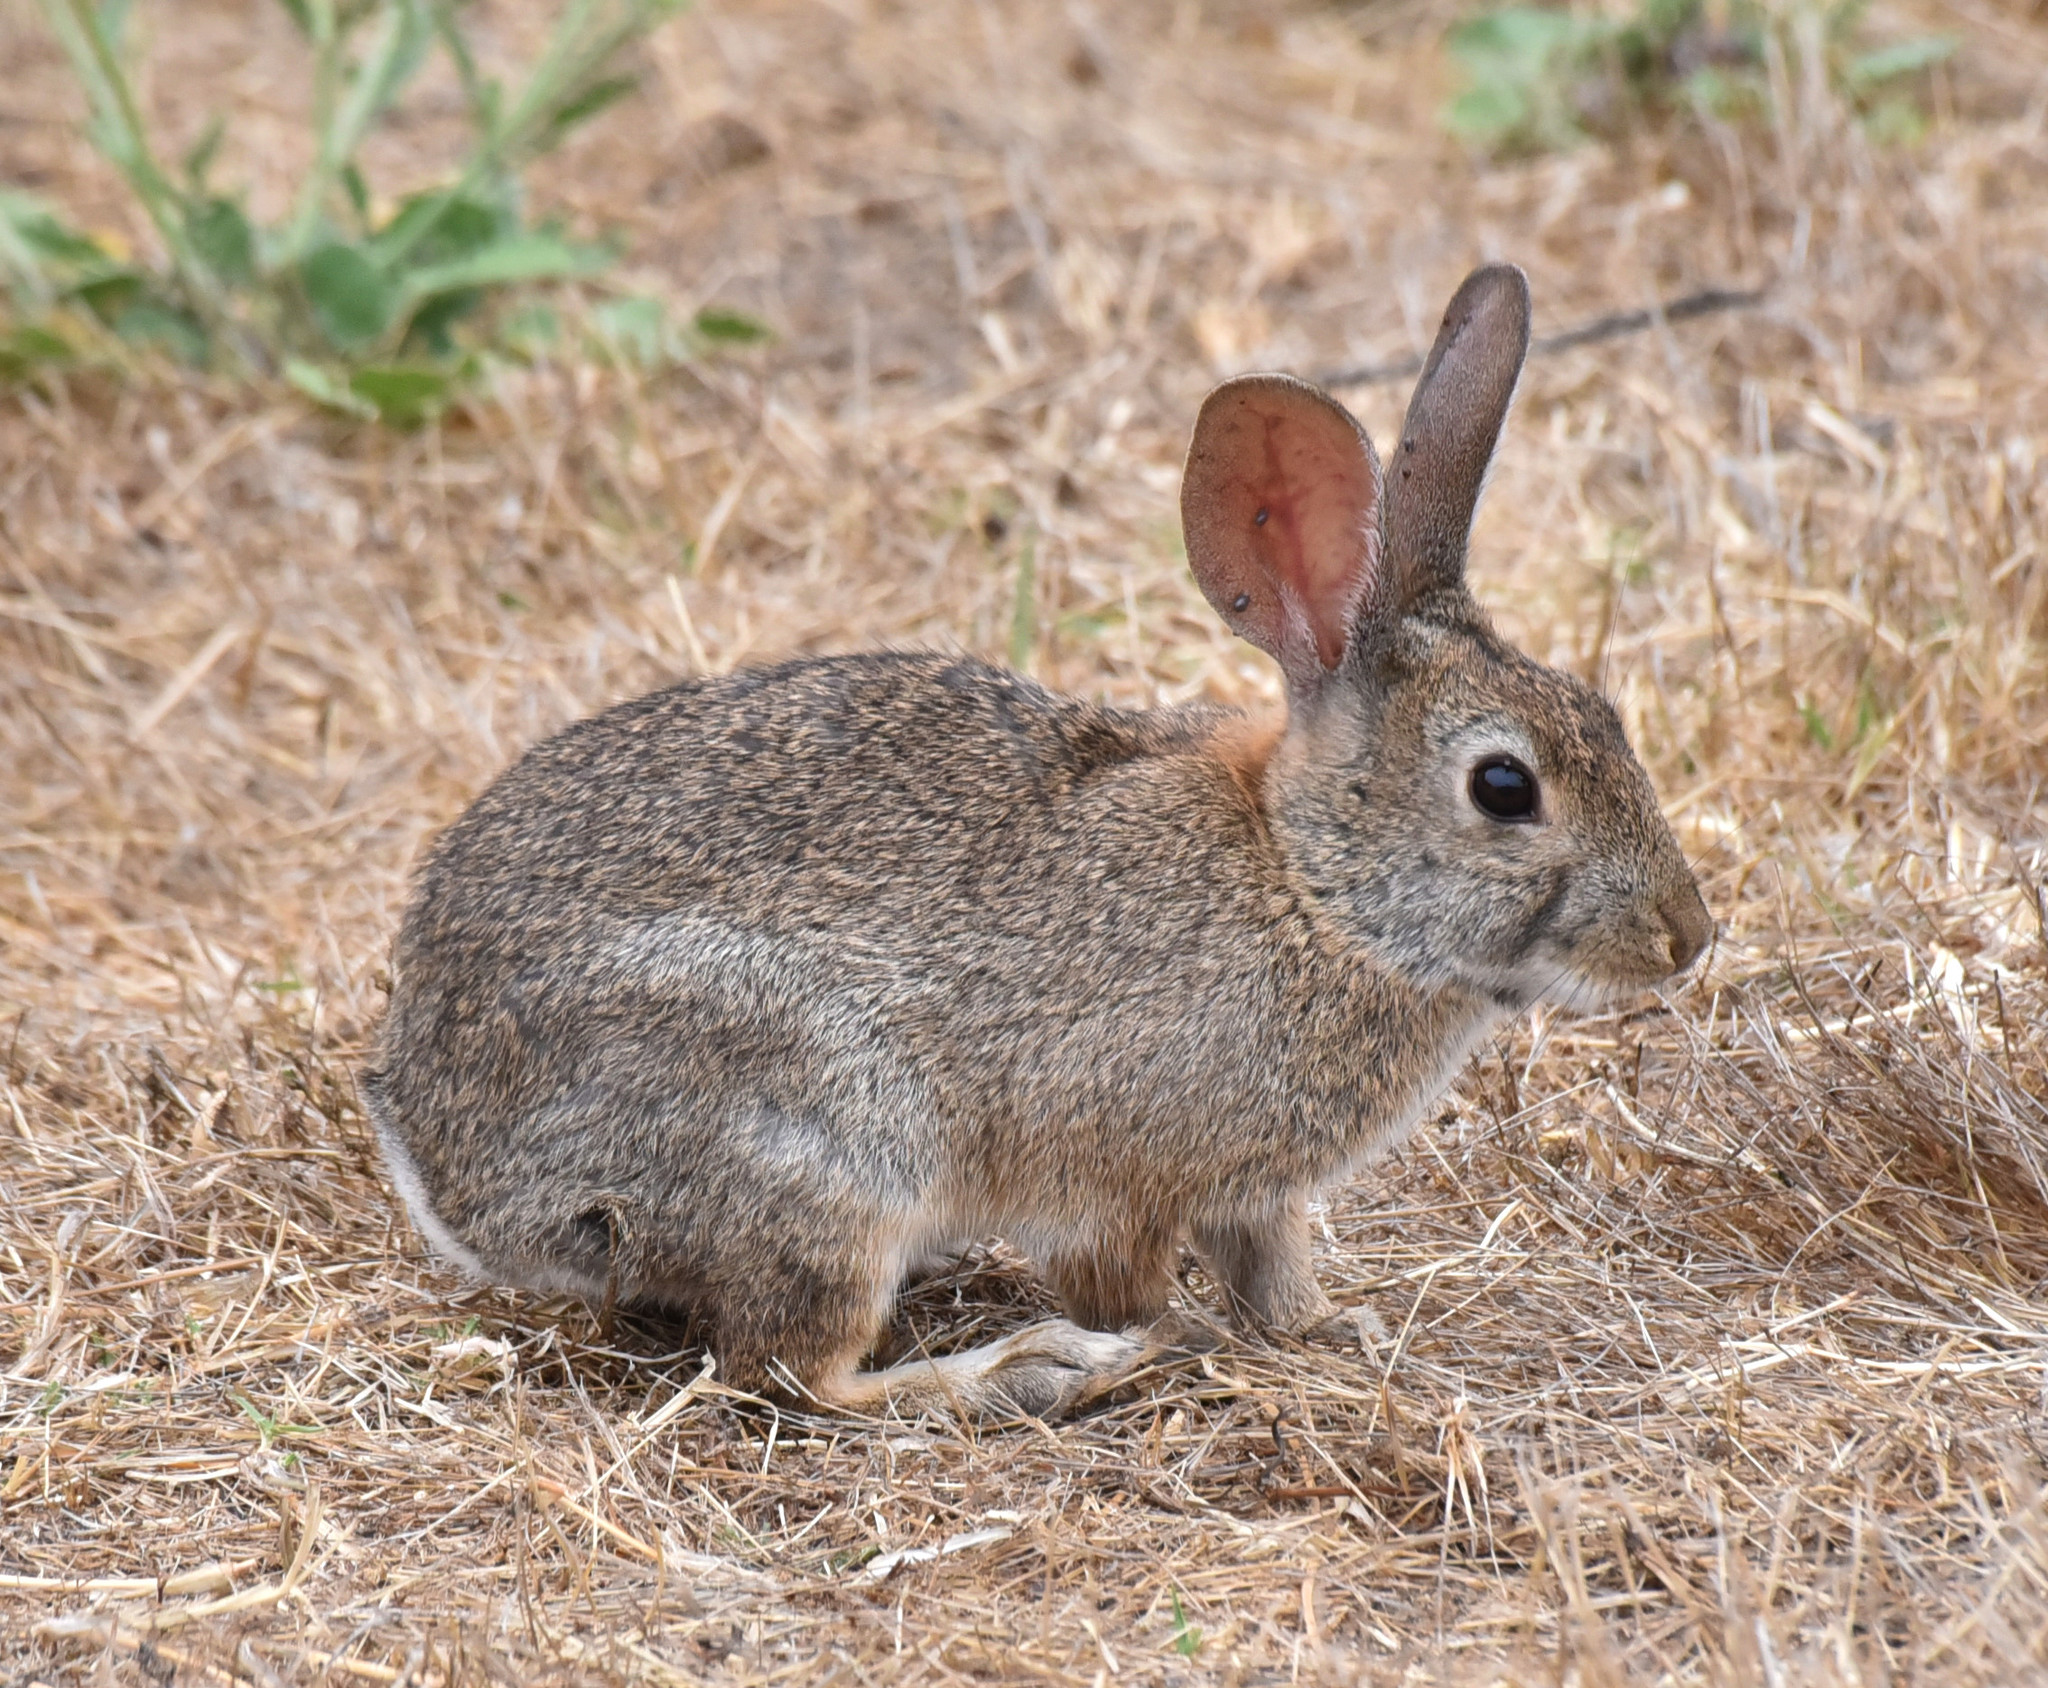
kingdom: Animalia
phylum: Chordata
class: Mammalia
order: Lagomorpha
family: Leporidae
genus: Sylvilagus
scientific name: Sylvilagus bachmani
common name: Brush rabbit
